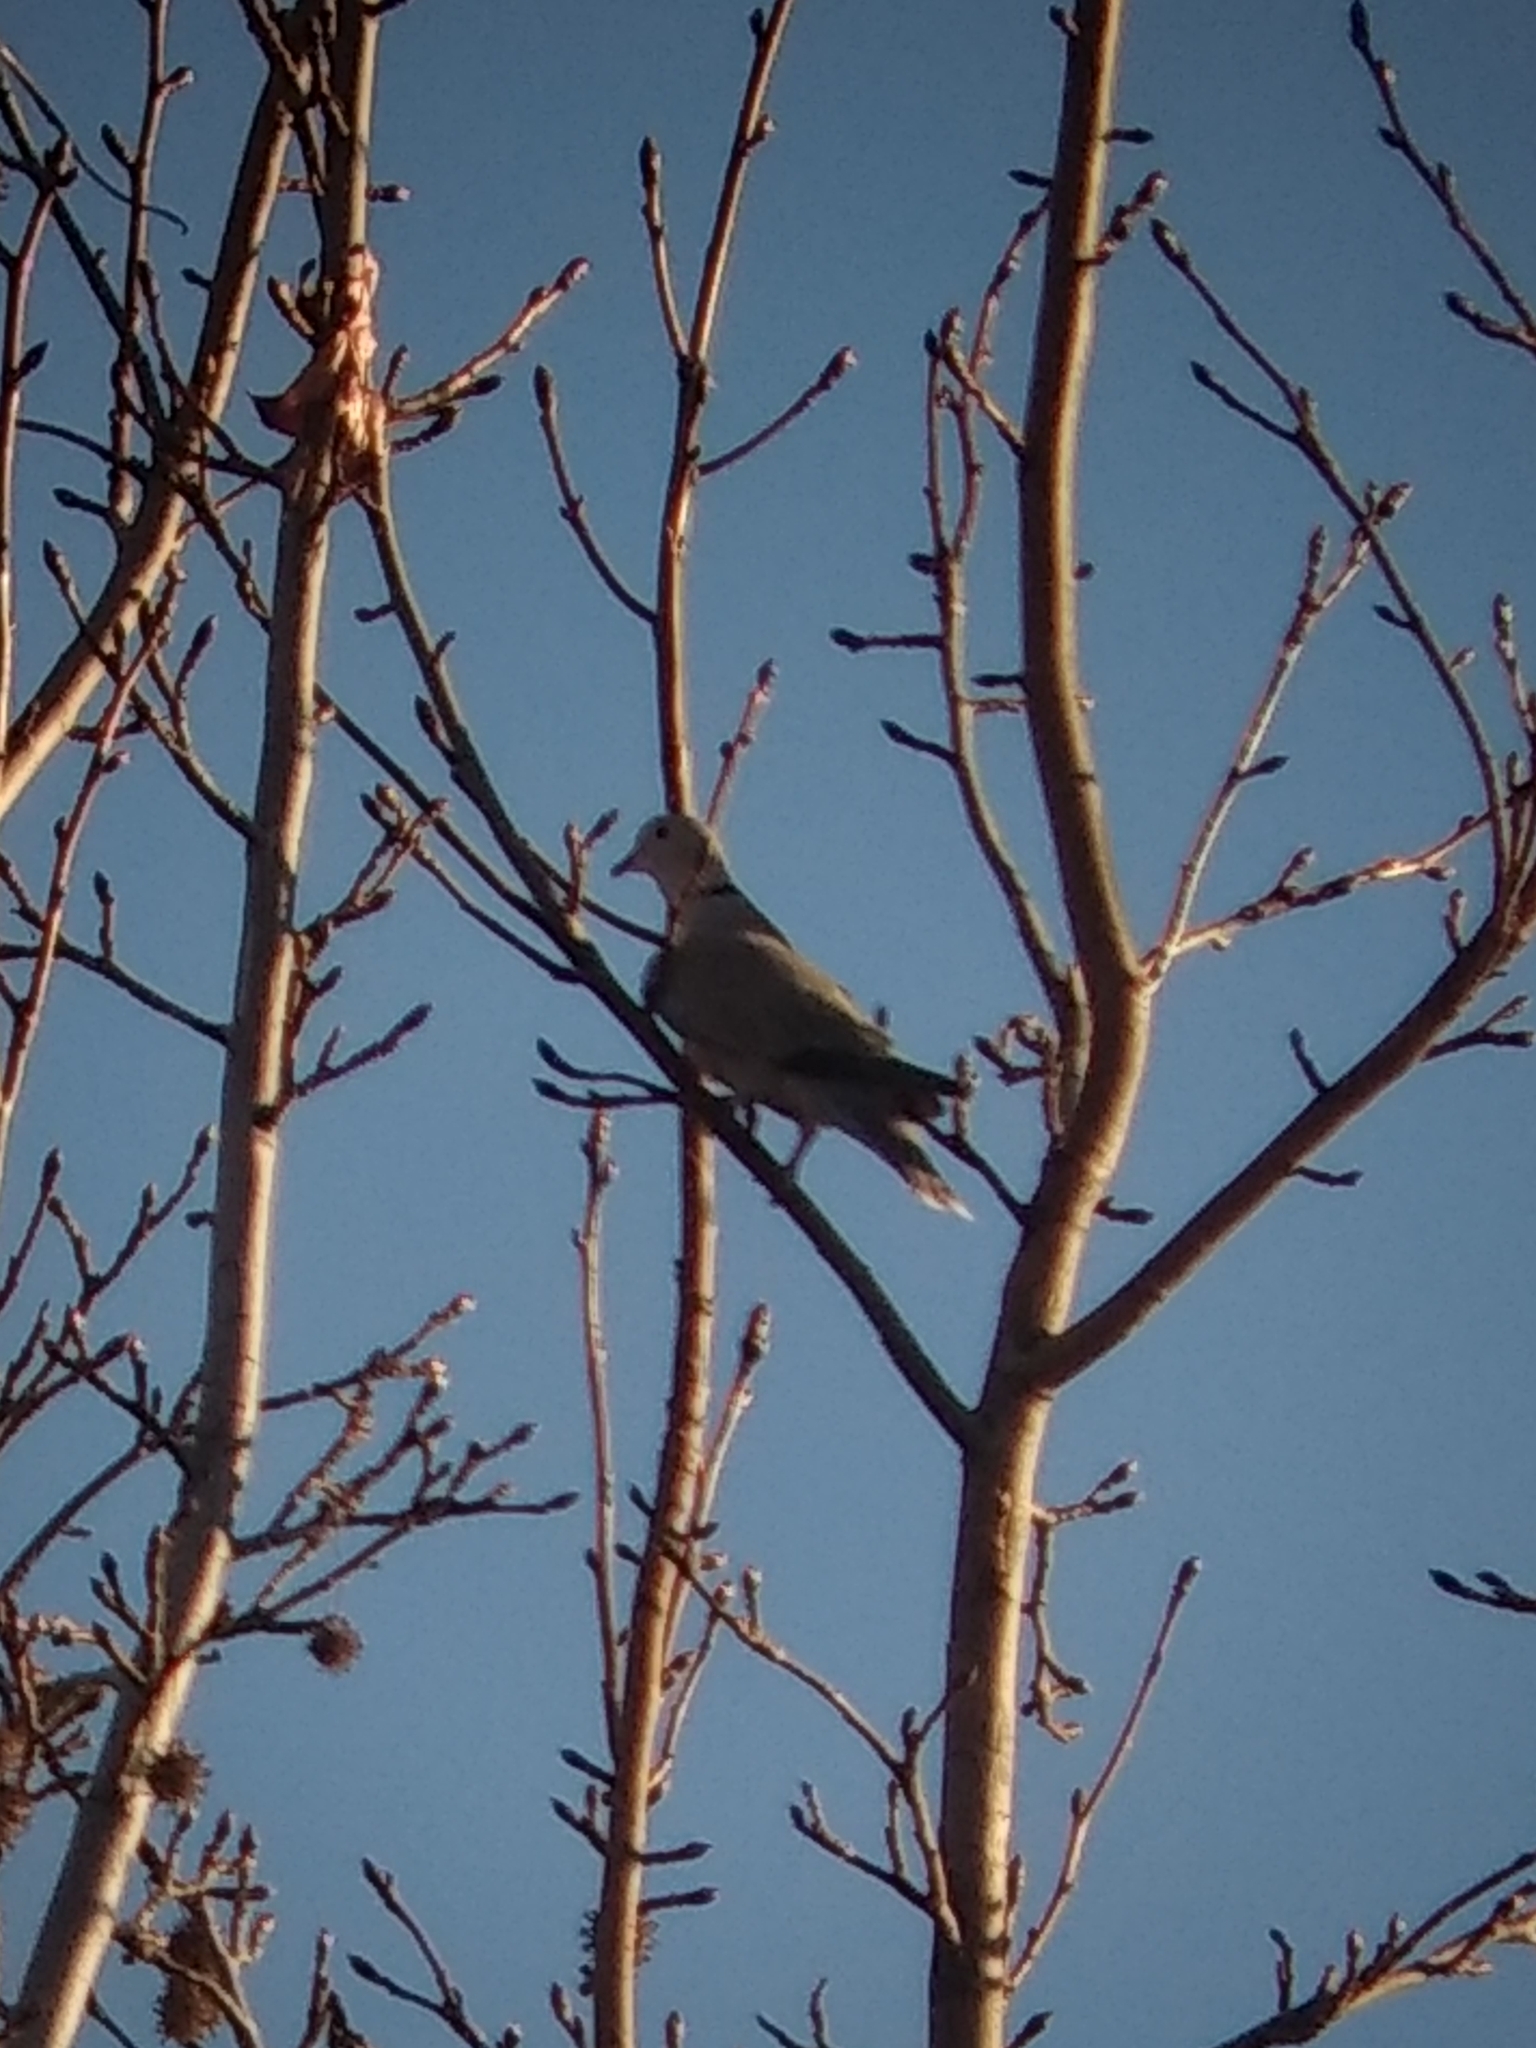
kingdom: Animalia
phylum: Chordata
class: Aves
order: Columbiformes
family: Columbidae
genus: Streptopelia
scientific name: Streptopelia decaocto
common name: Eurasian collared dove
